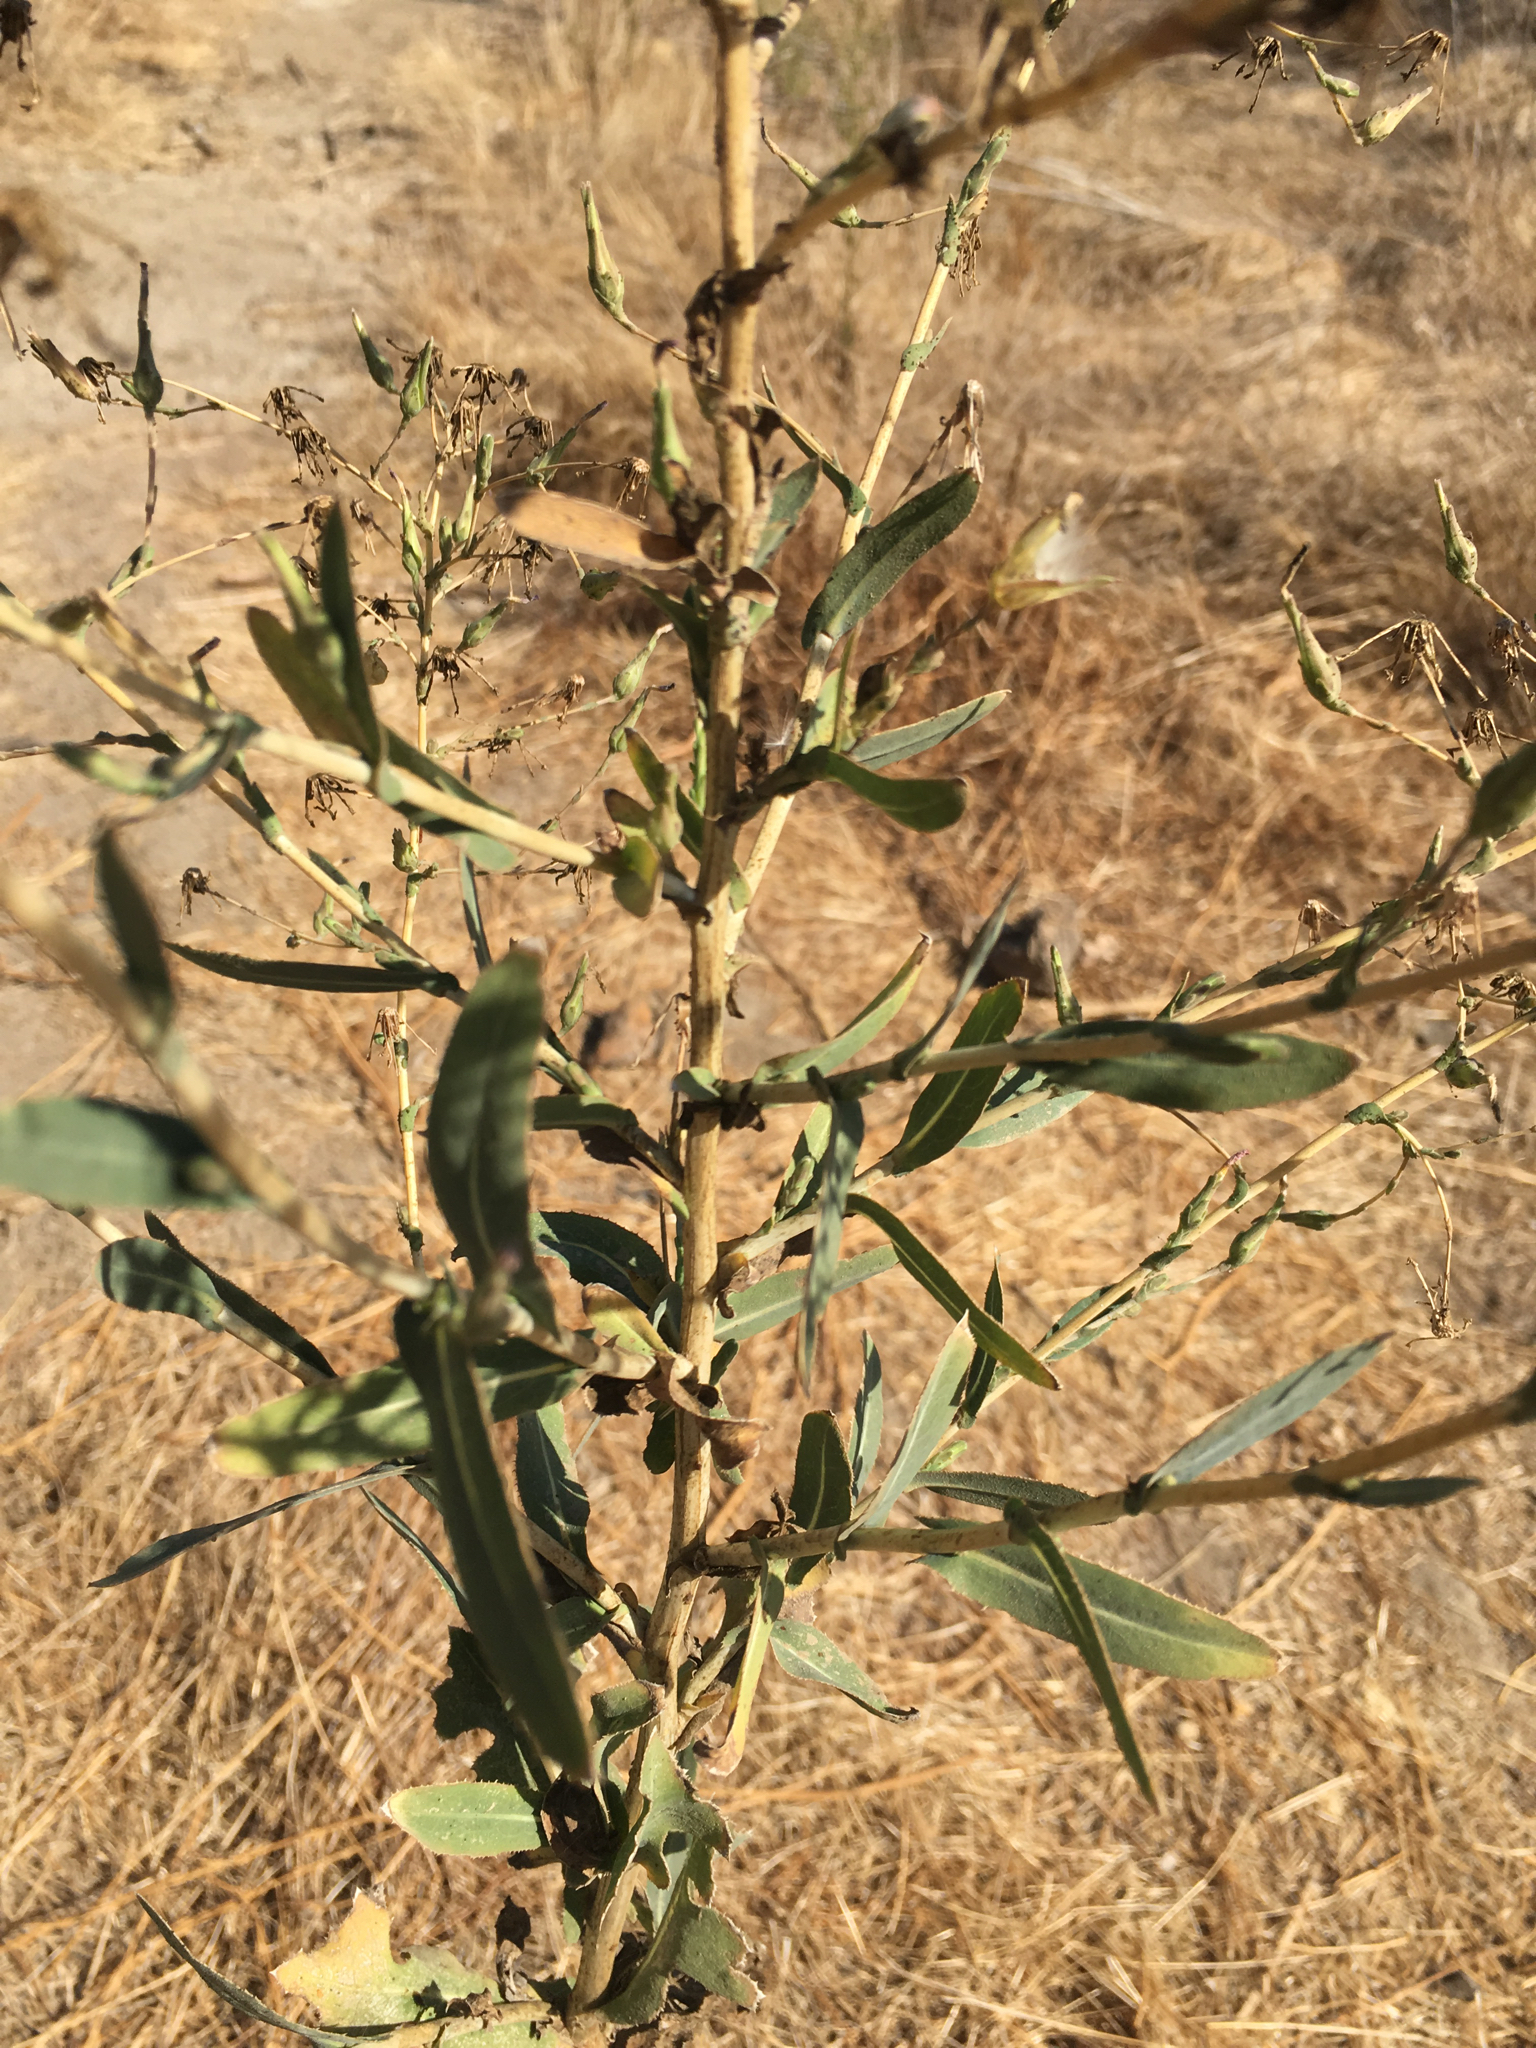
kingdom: Plantae
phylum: Tracheophyta
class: Magnoliopsida
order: Asterales
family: Asteraceae
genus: Lactuca
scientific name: Lactuca serriola
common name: Prickly lettuce
